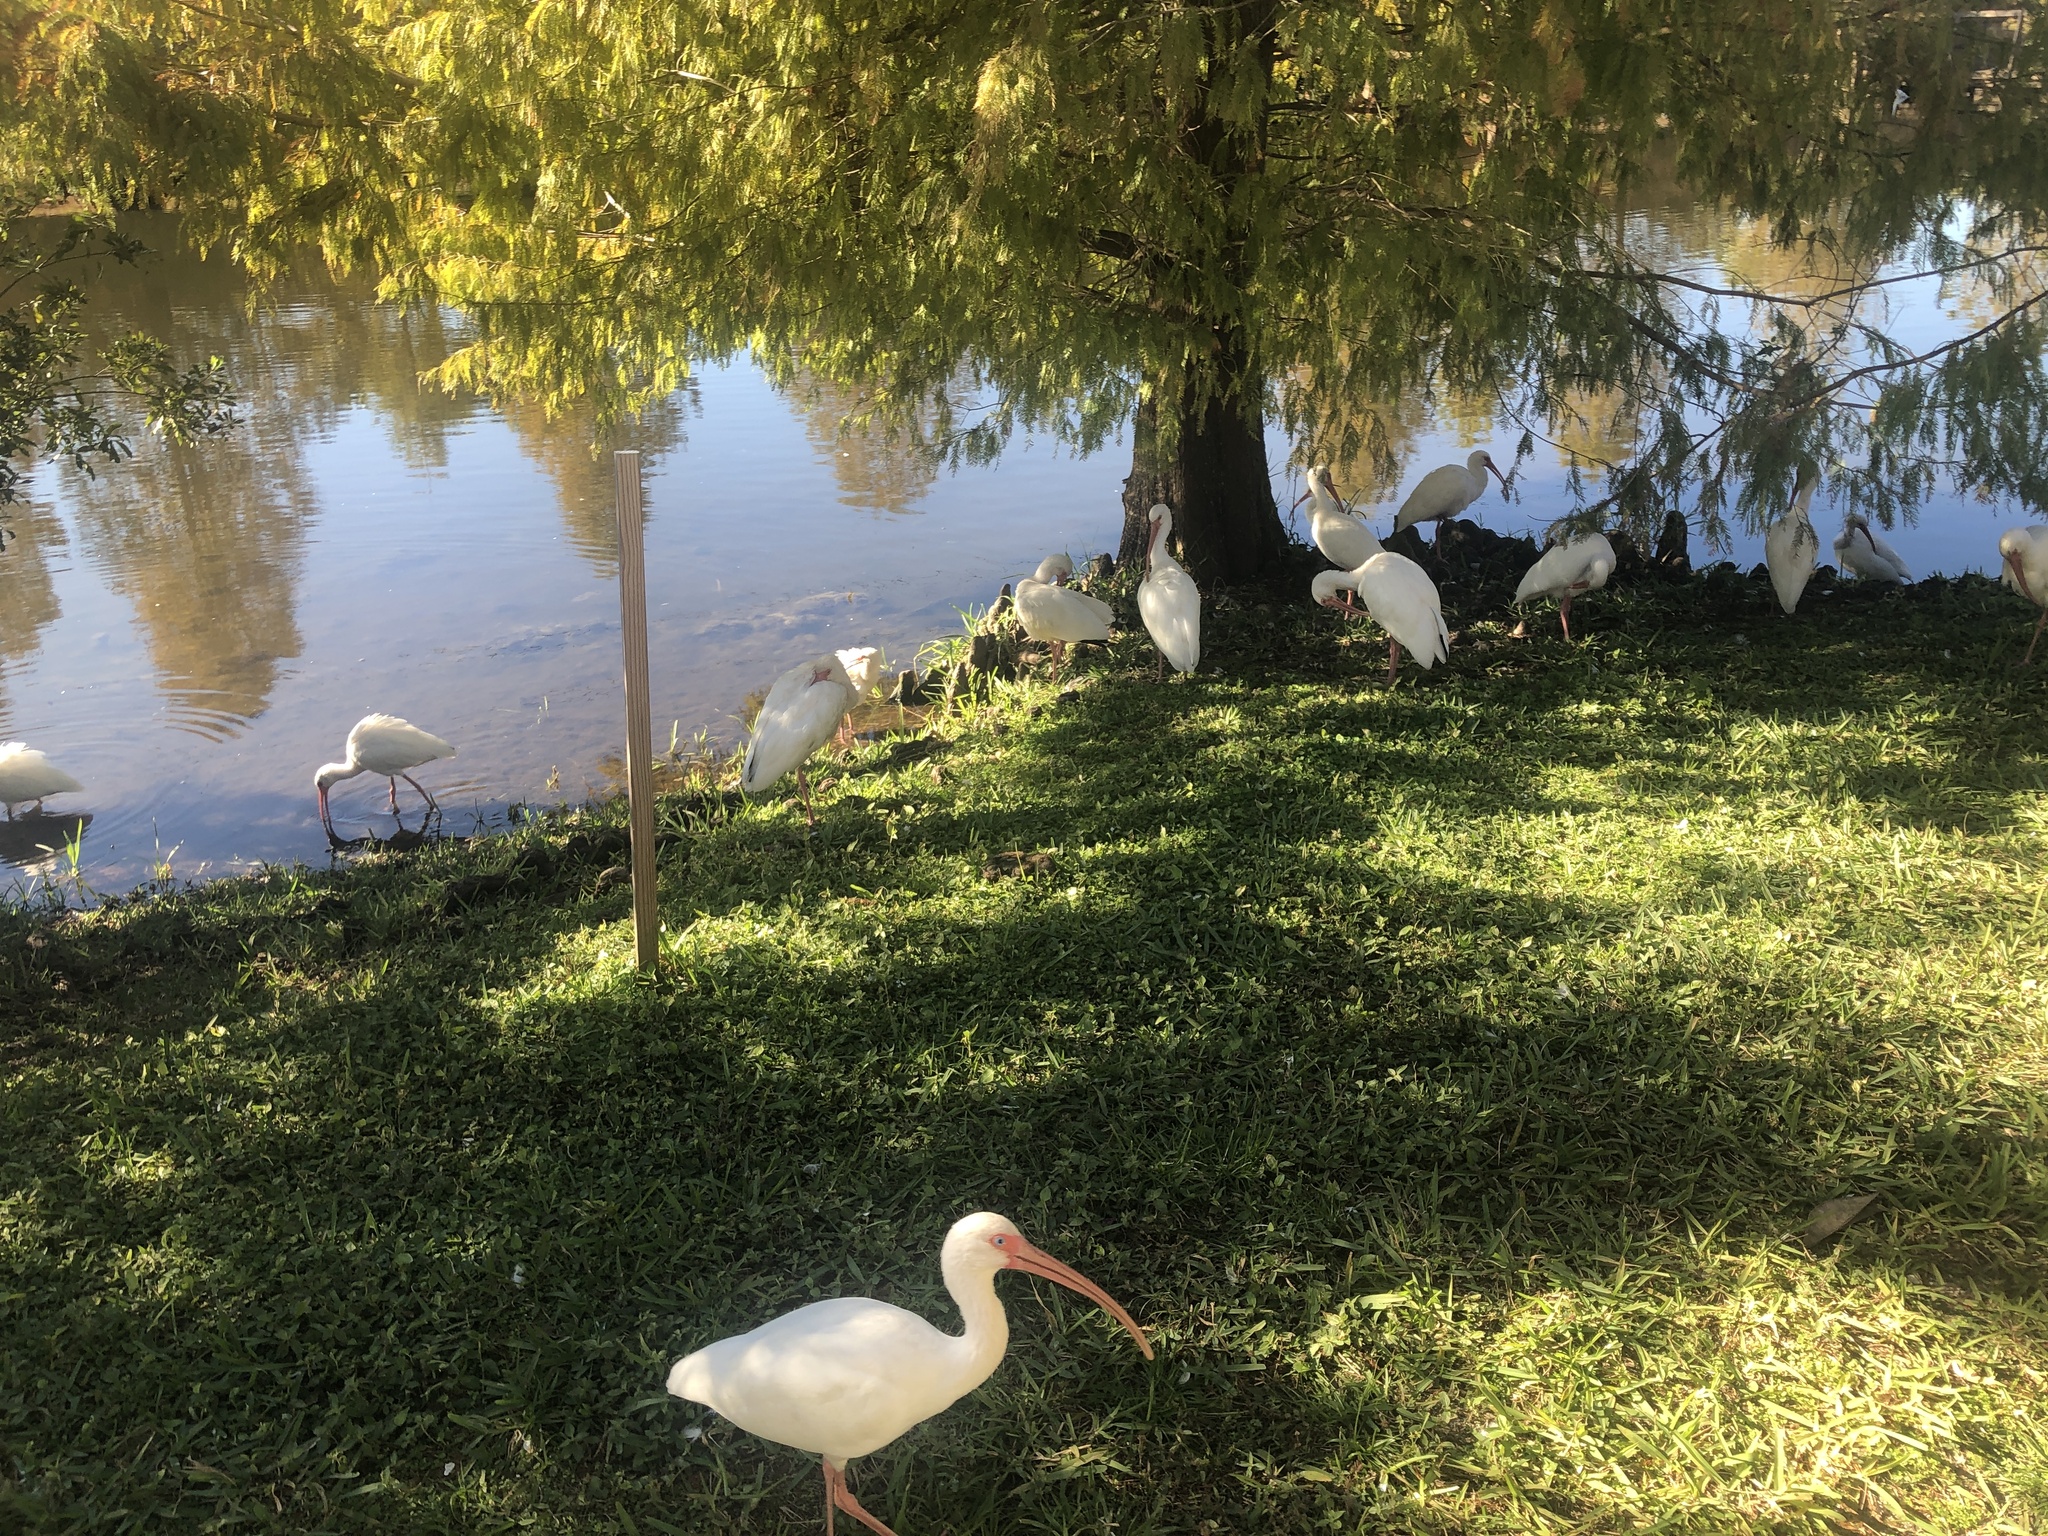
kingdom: Animalia
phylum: Chordata
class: Aves
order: Pelecaniformes
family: Threskiornithidae
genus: Eudocimus
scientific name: Eudocimus albus
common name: White ibis
